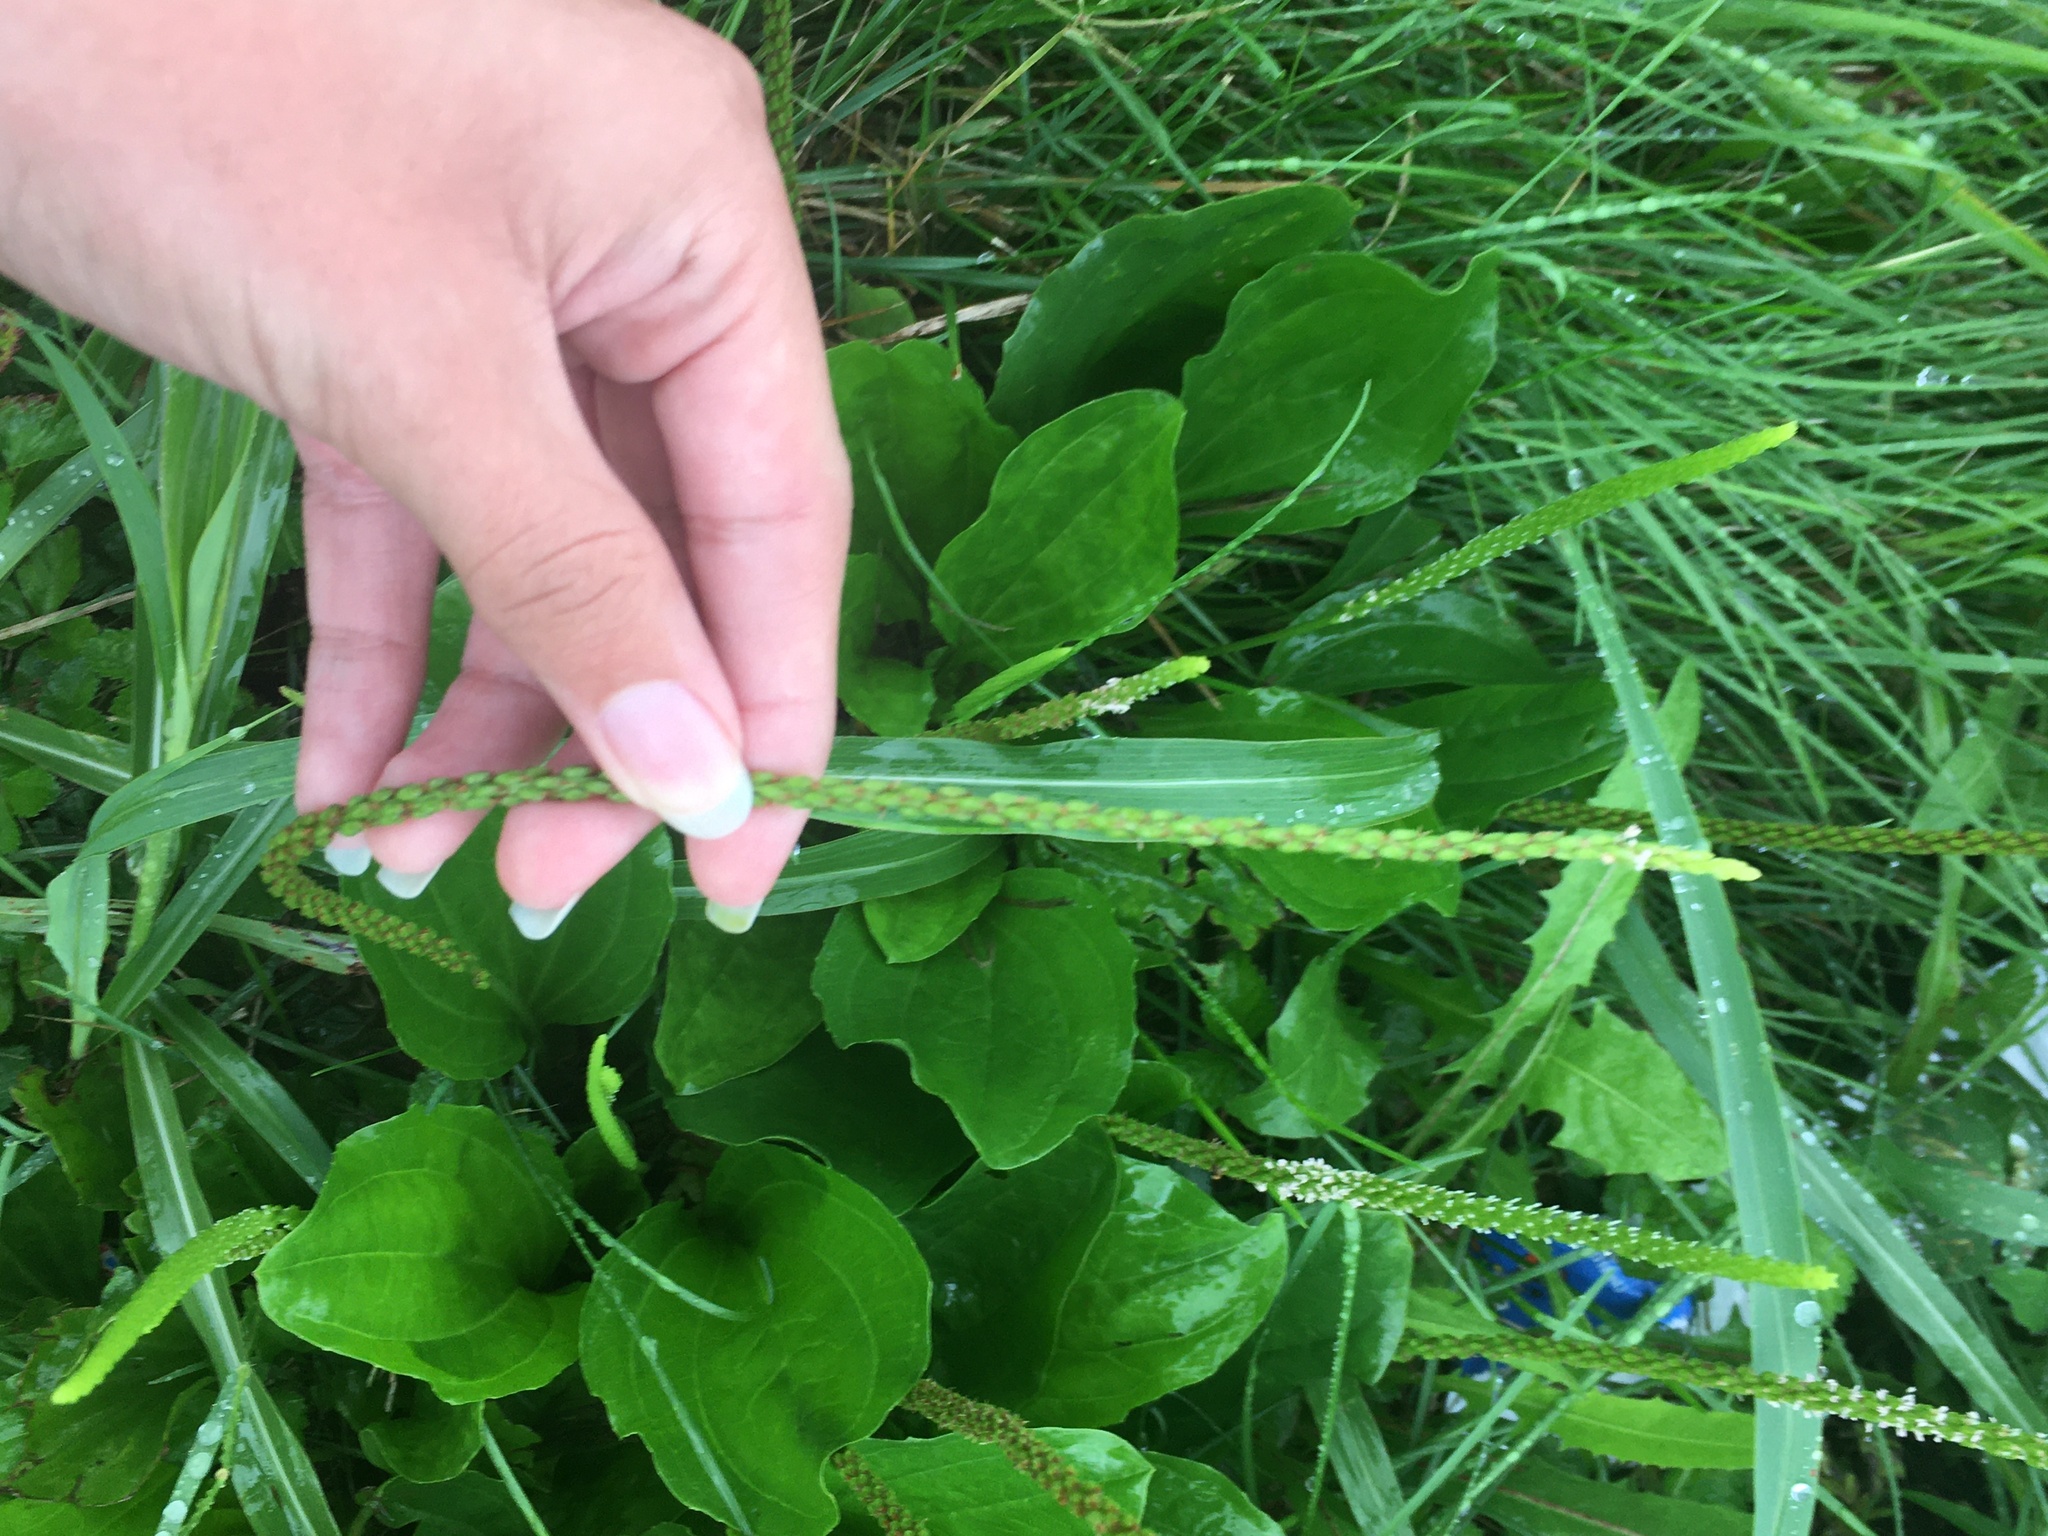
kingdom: Plantae
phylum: Tracheophyta
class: Magnoliopsida
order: Lamiales
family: Plantaginaceae
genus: Plantago
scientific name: Plantago rugelii
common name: American plantain
